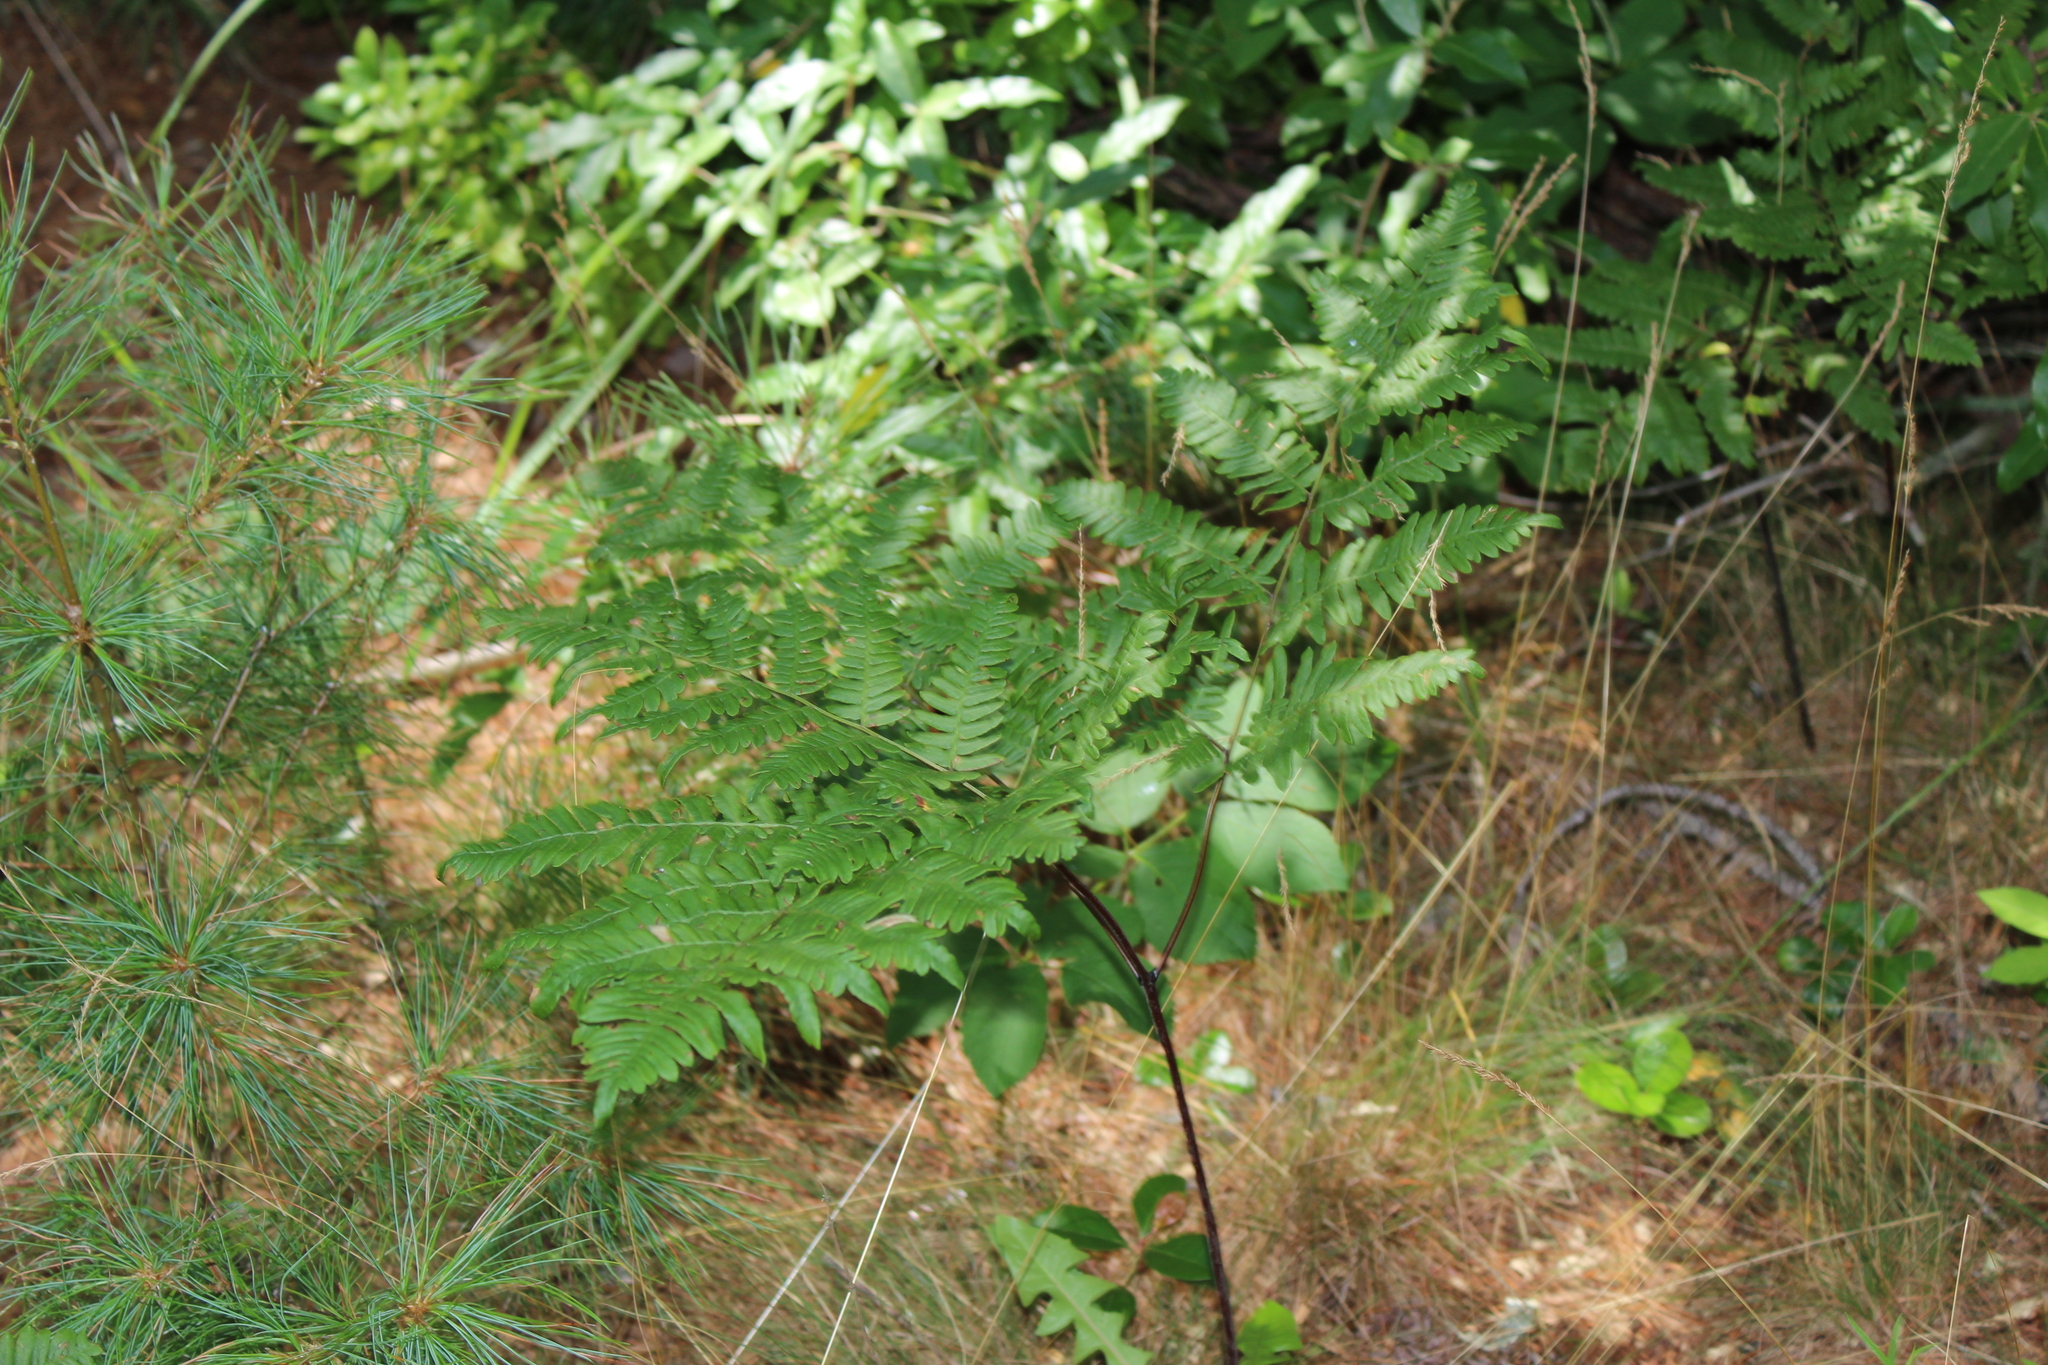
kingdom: Plantae
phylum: Tracheophyta
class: Polypodiopsida
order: Polypodiales
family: Dennstaedtiaceae
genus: Pteridium
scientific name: Pteridium aquilinum
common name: Bracken
